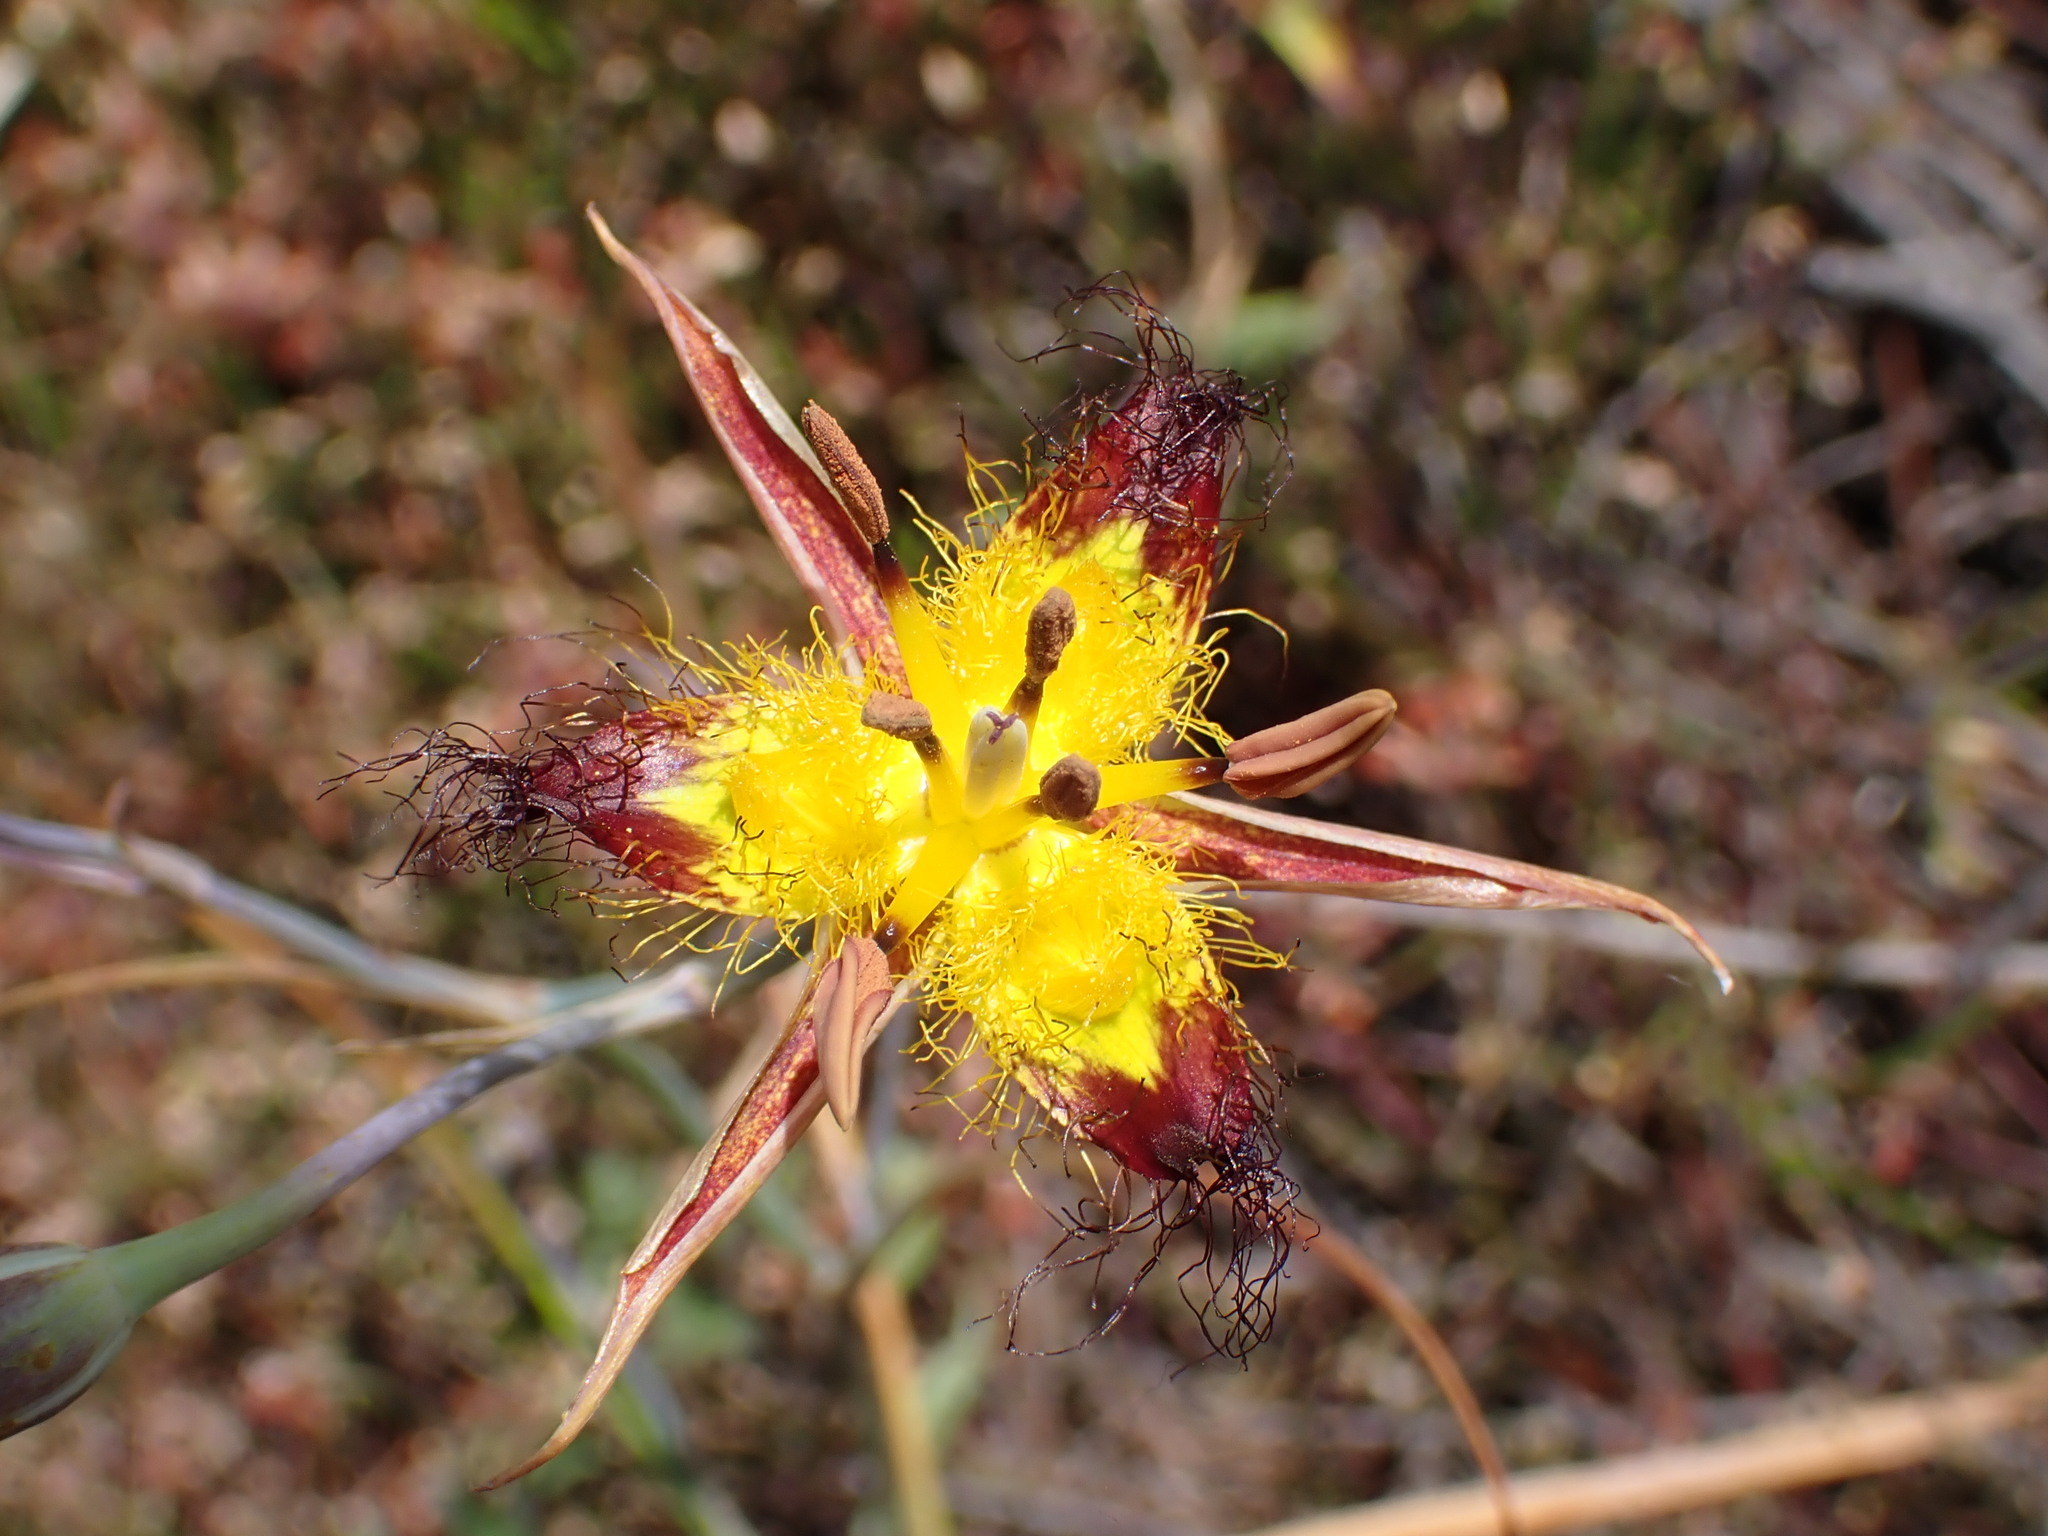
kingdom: Plantae
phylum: Tracheophyta
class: Liliopsida
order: Liliales
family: Liliaceae
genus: Calochortus
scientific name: Calochortus obispoensis
